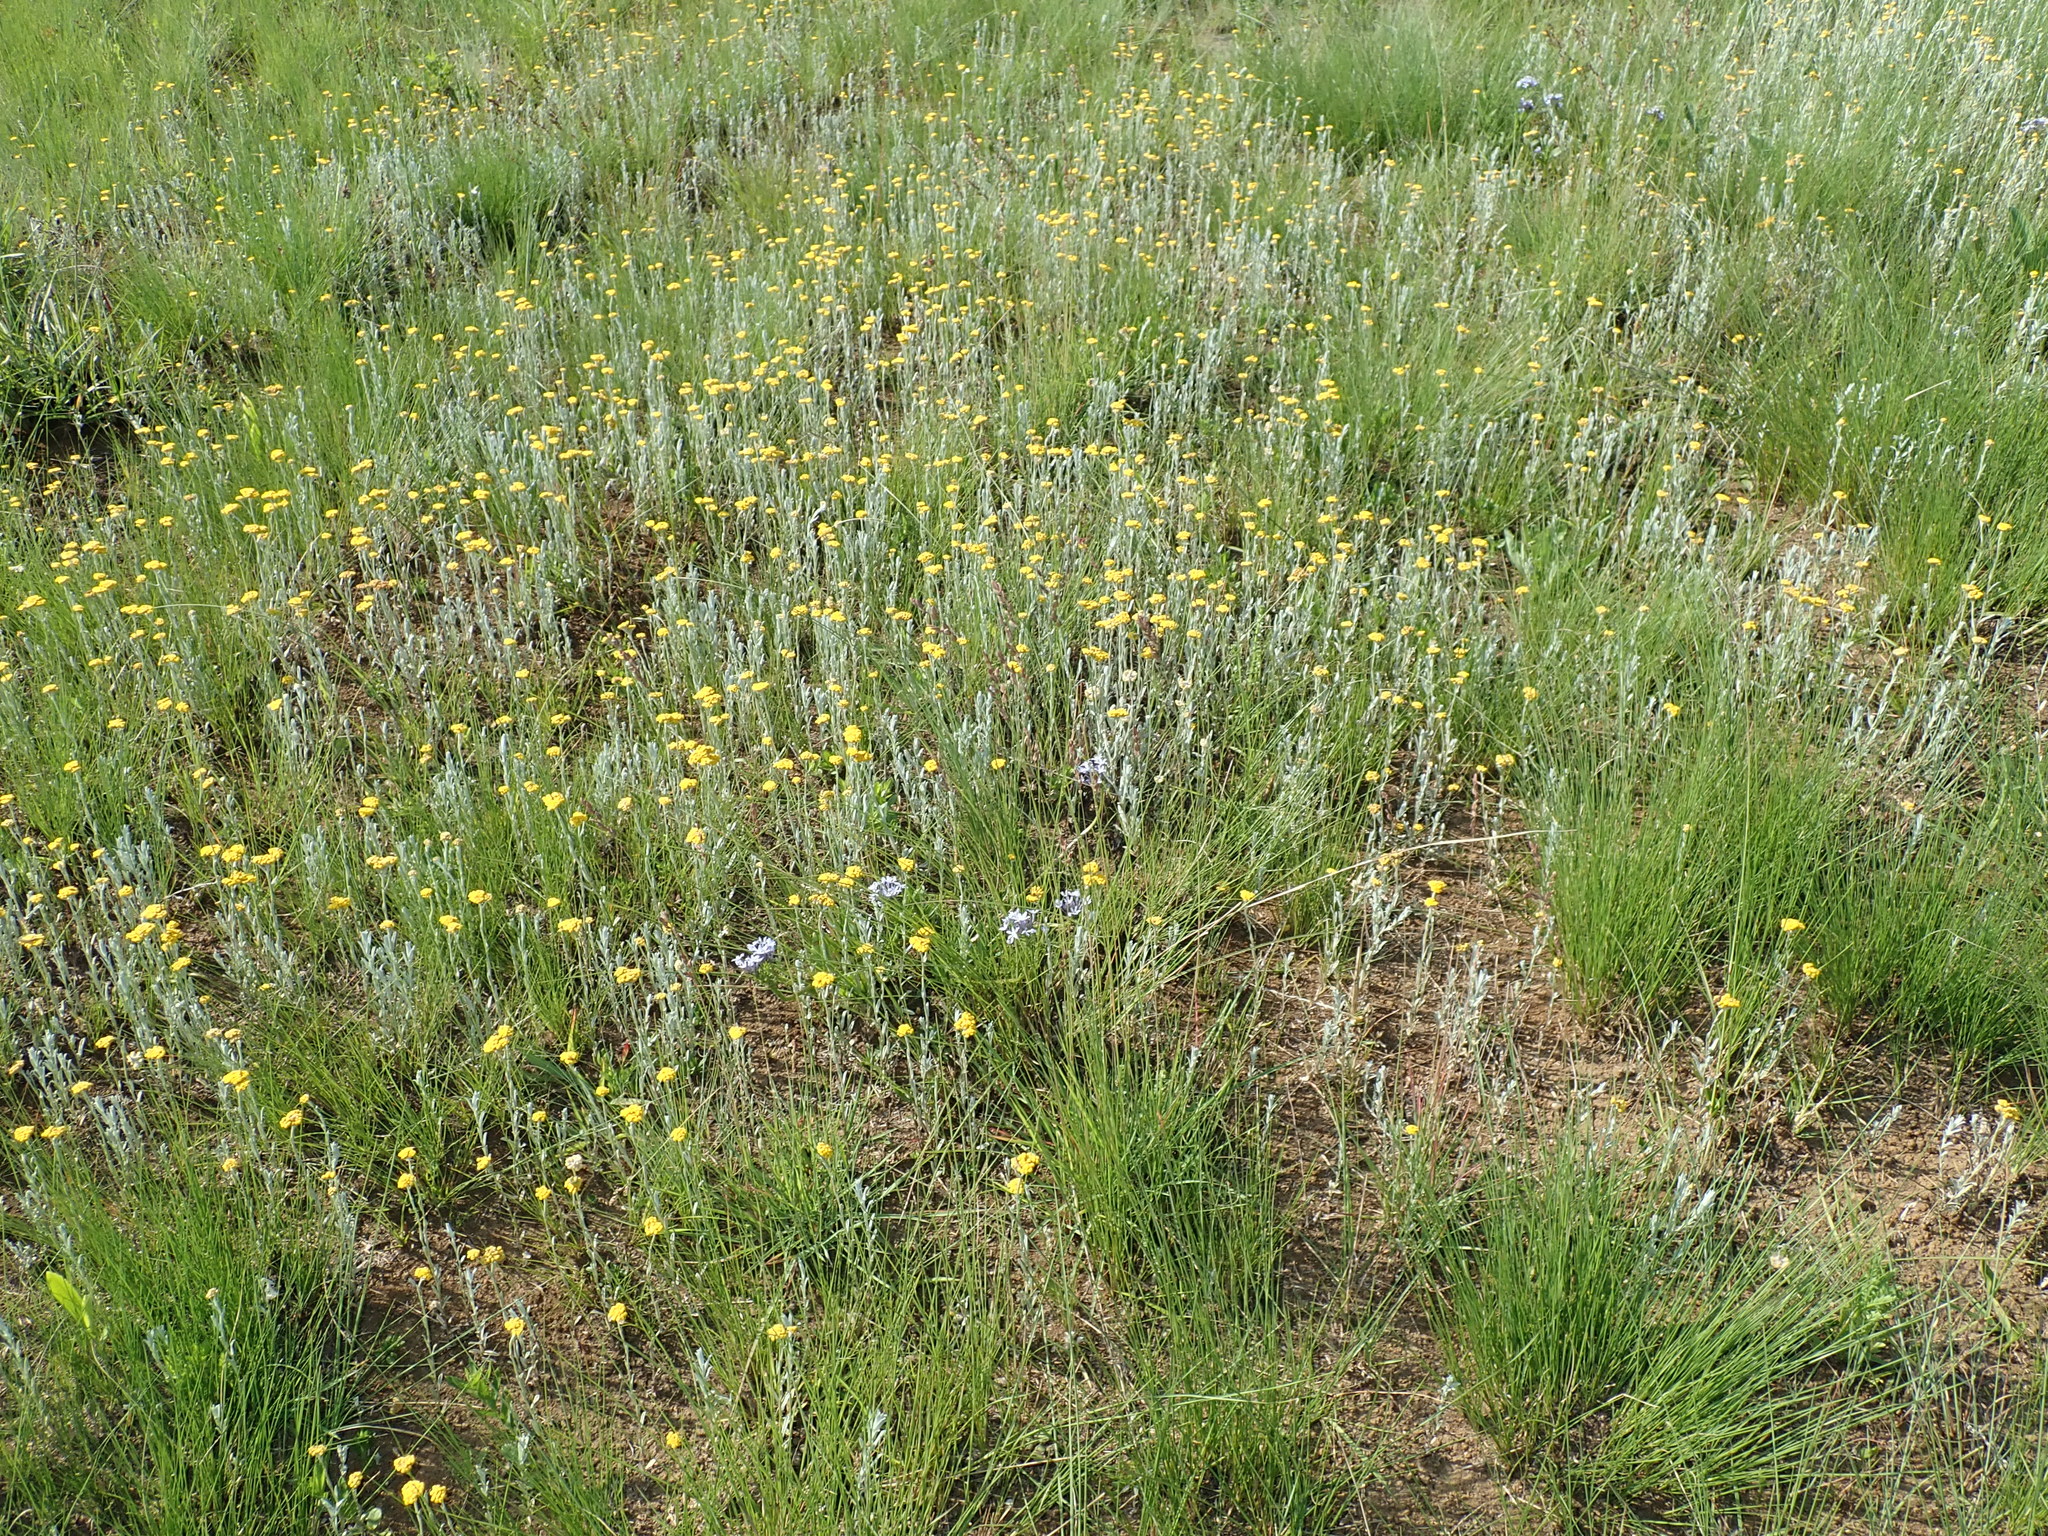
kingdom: Plantae
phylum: Tracheophyta
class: Magnoliopsida
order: Asterales
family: Asteraceae
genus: Helichrysum
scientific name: Helichrysum aureonitens
